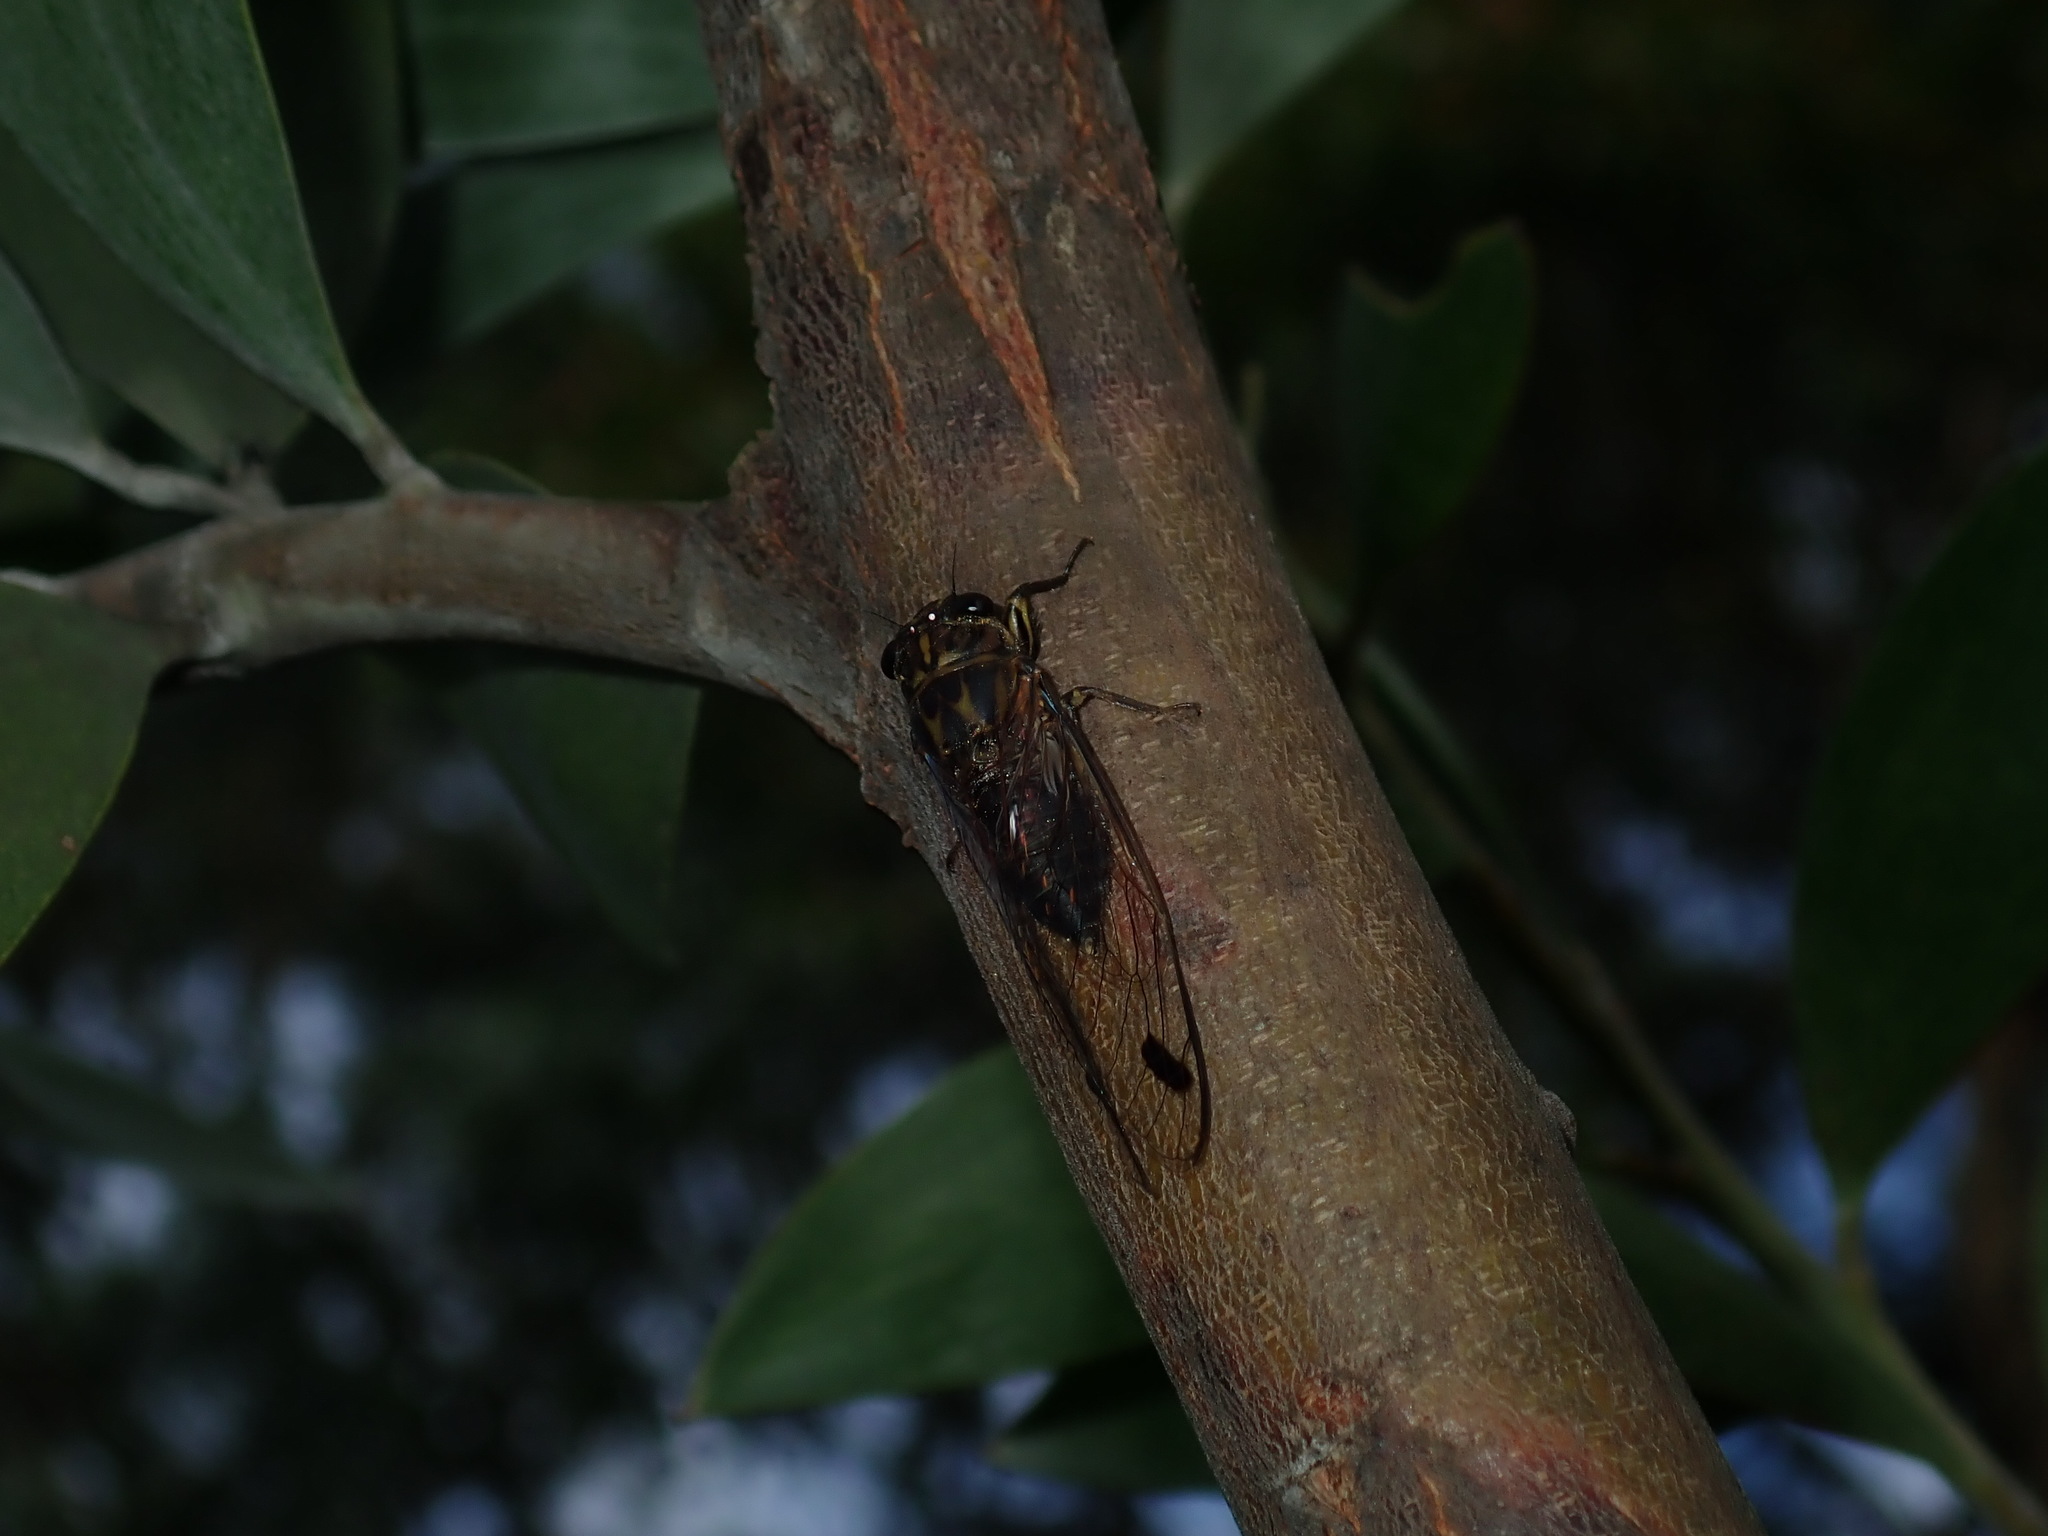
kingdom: Animalia
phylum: Arthropoda
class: Insecta
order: Hemiptera
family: Cicadidae
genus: Galanga
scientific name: Galanga labeculata
